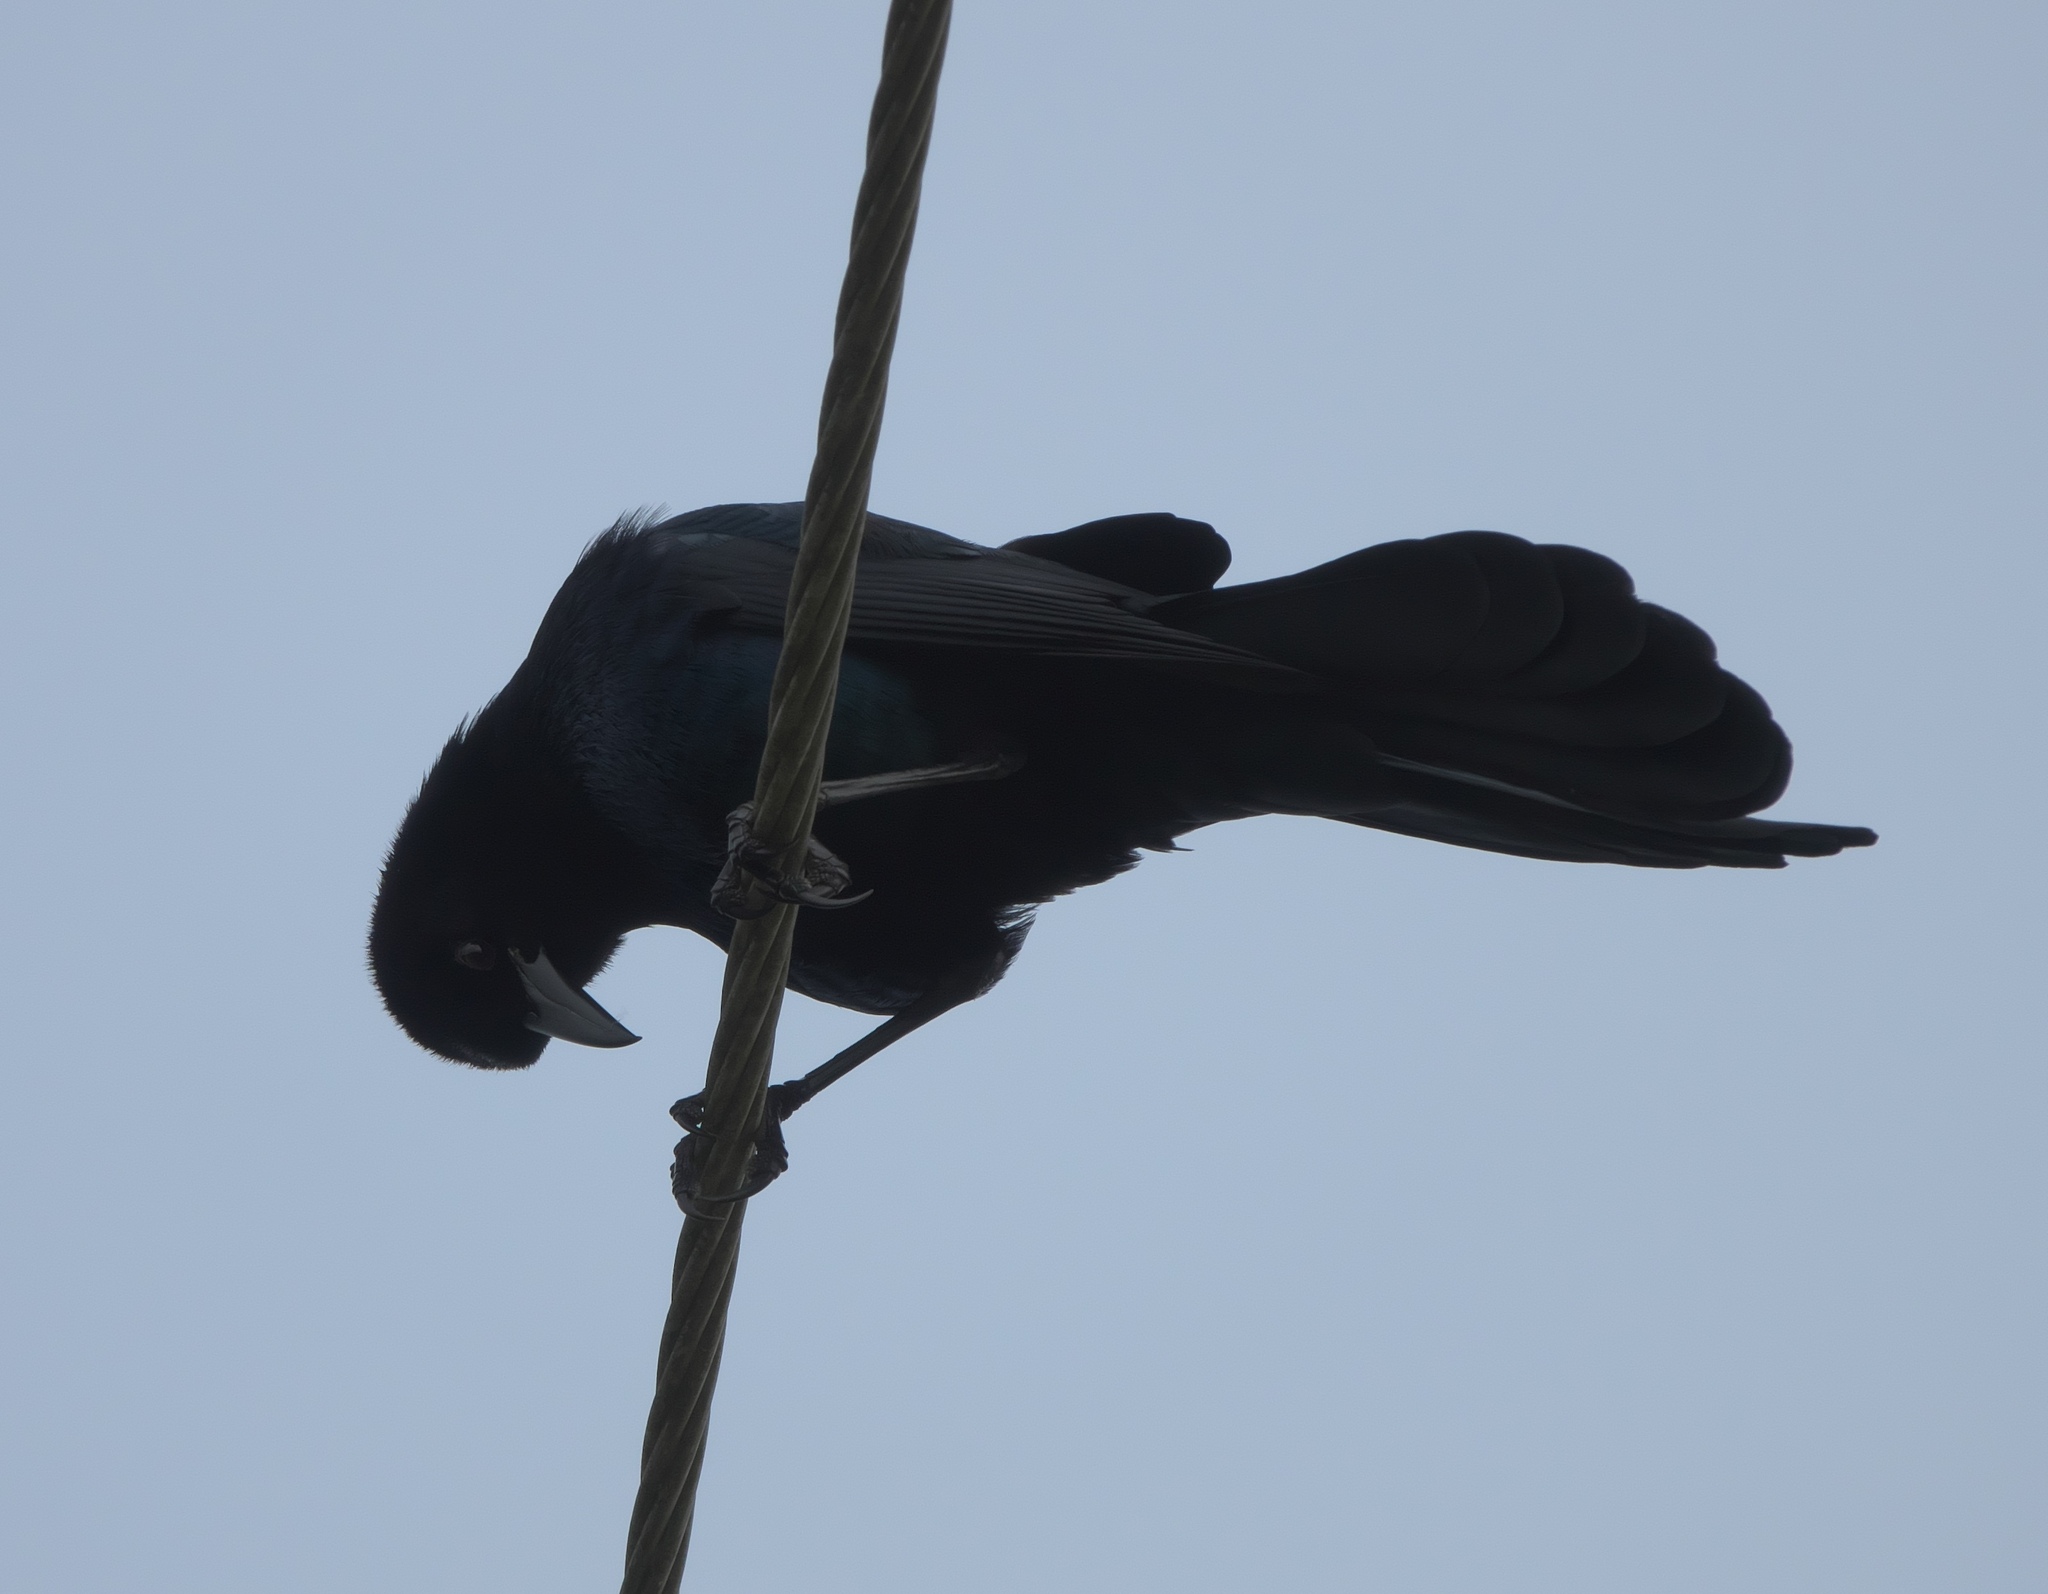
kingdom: Animalia
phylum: Chordata
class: Aves
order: Passeriformes
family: Icteridae
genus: Quiscalus
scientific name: Quiscalus major
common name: Boat-tailed grackle
